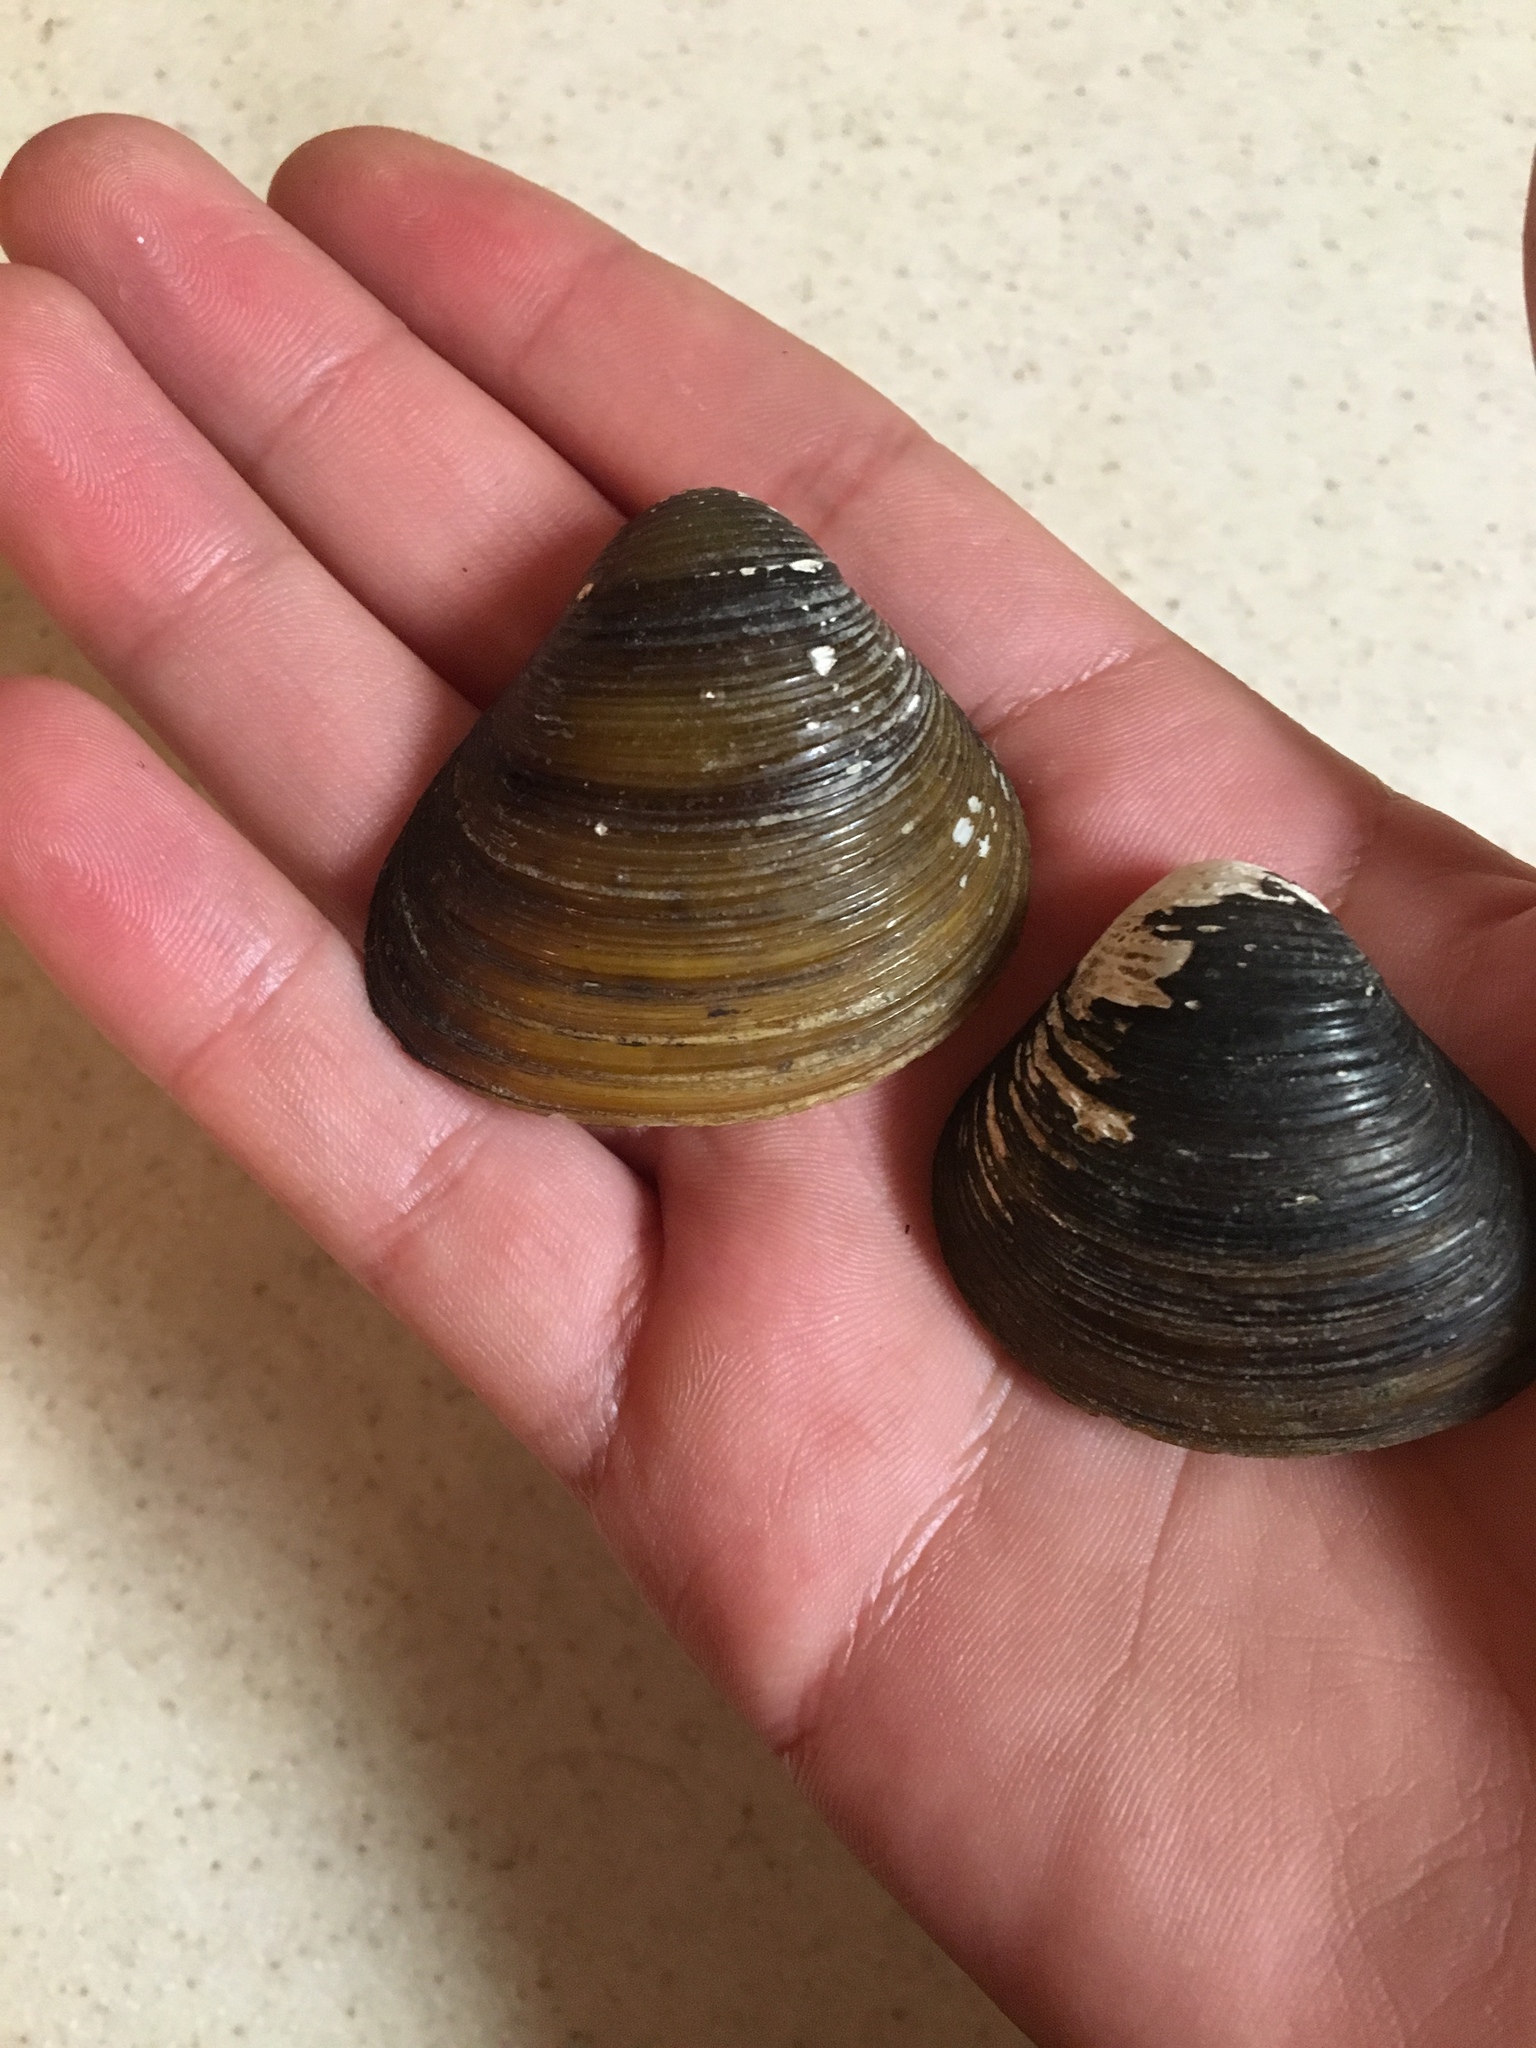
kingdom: Animalia
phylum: Mollusca
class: Bivalvia
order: Venerida
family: Cyrenidae
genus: Corbicula
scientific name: Corbicula fluminea
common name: Asian clam
